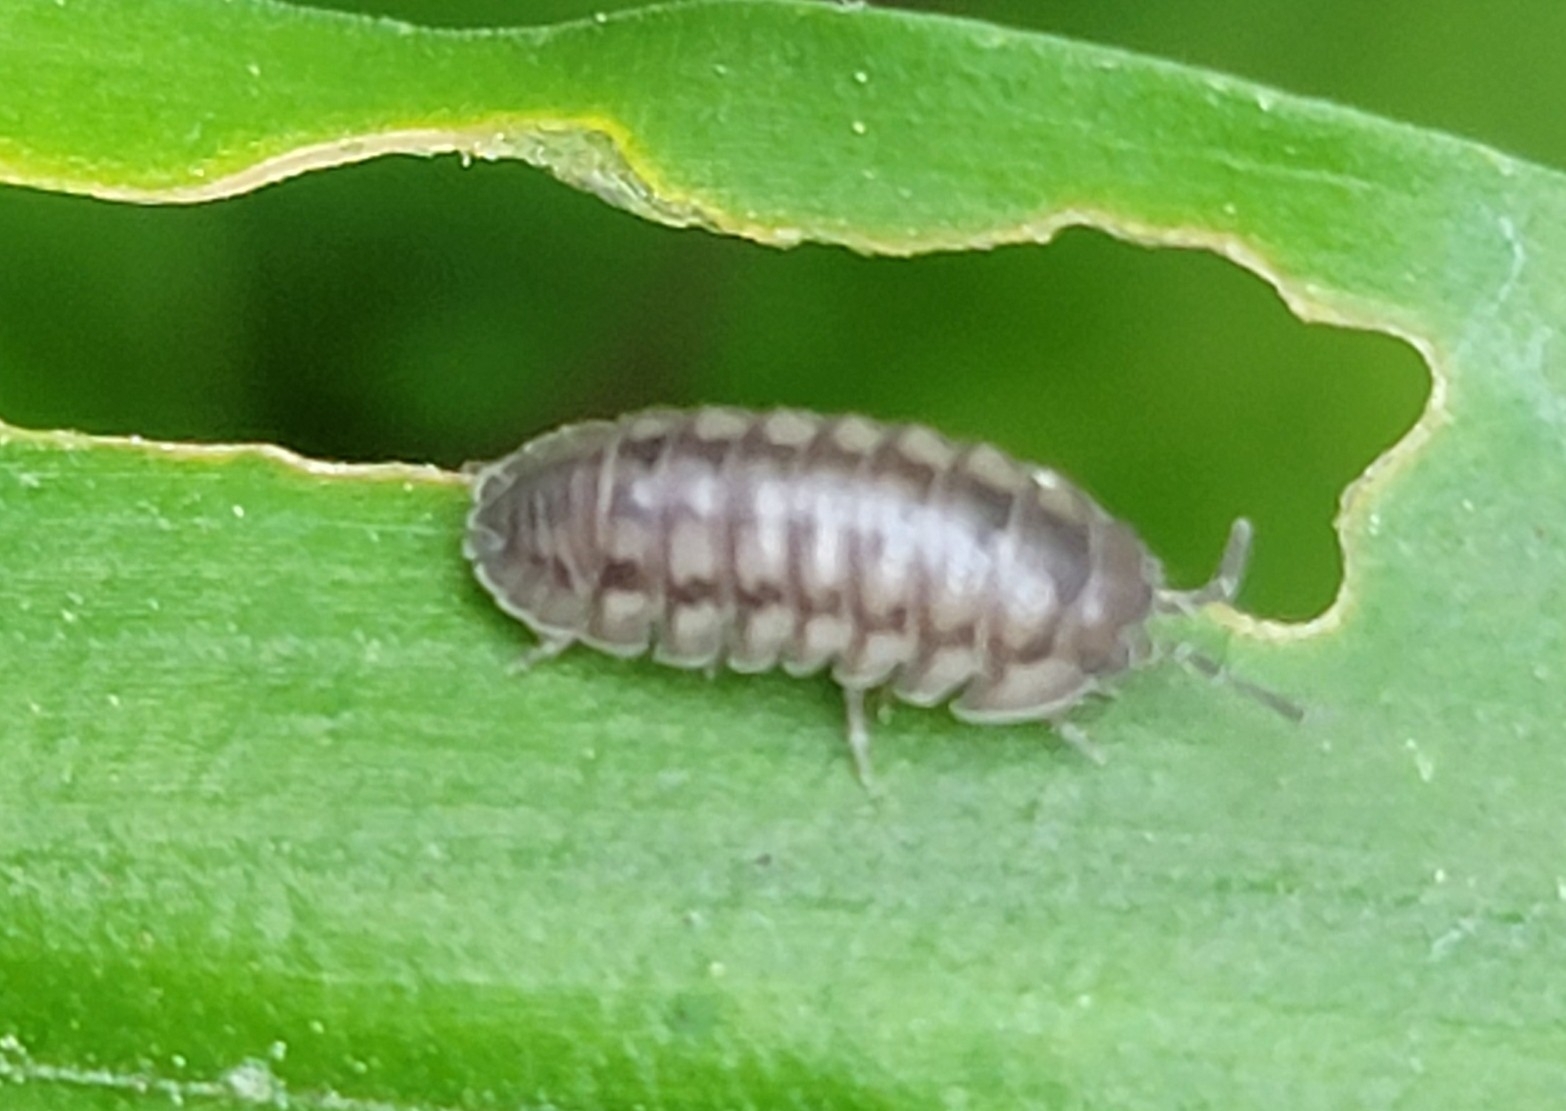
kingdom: Animalia
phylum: Arthropoda
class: Malacostraca
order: Isopoda
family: Armadillidiidae
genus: Armadillidium
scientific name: Armadillidium nasatum
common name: Isopod
